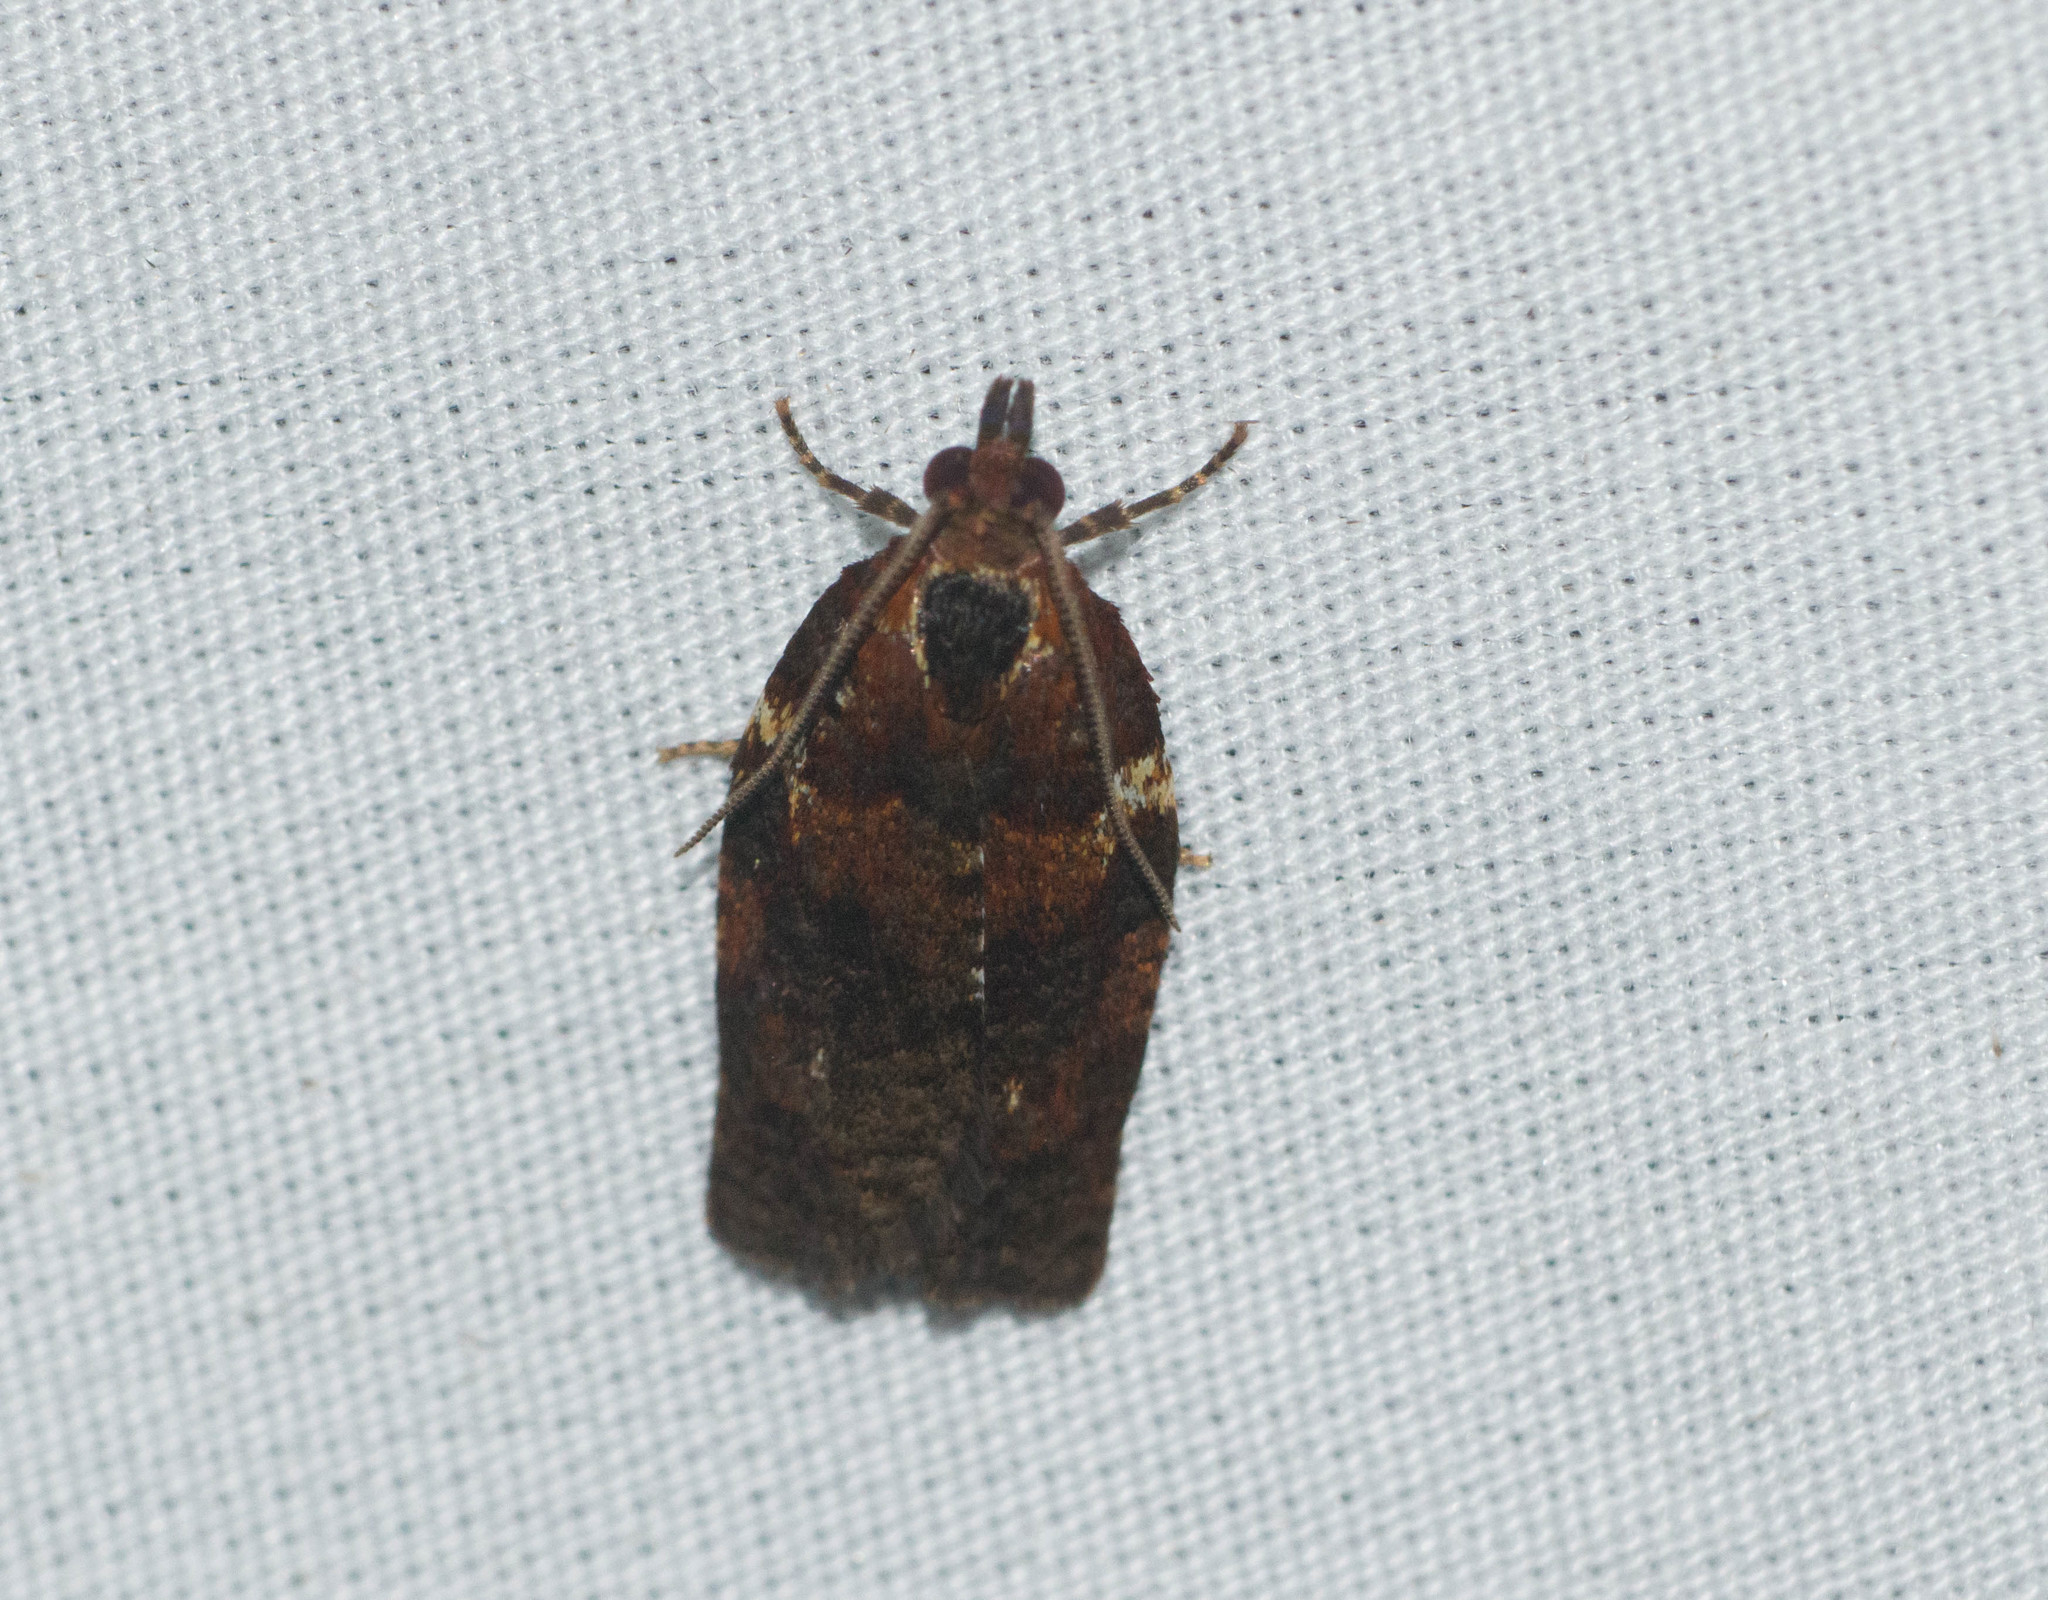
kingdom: Animalia
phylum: Arthropoda
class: Insecta
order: Lepidoptera
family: Tortricidae
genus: Spheterista
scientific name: Spheterista pleonectes
